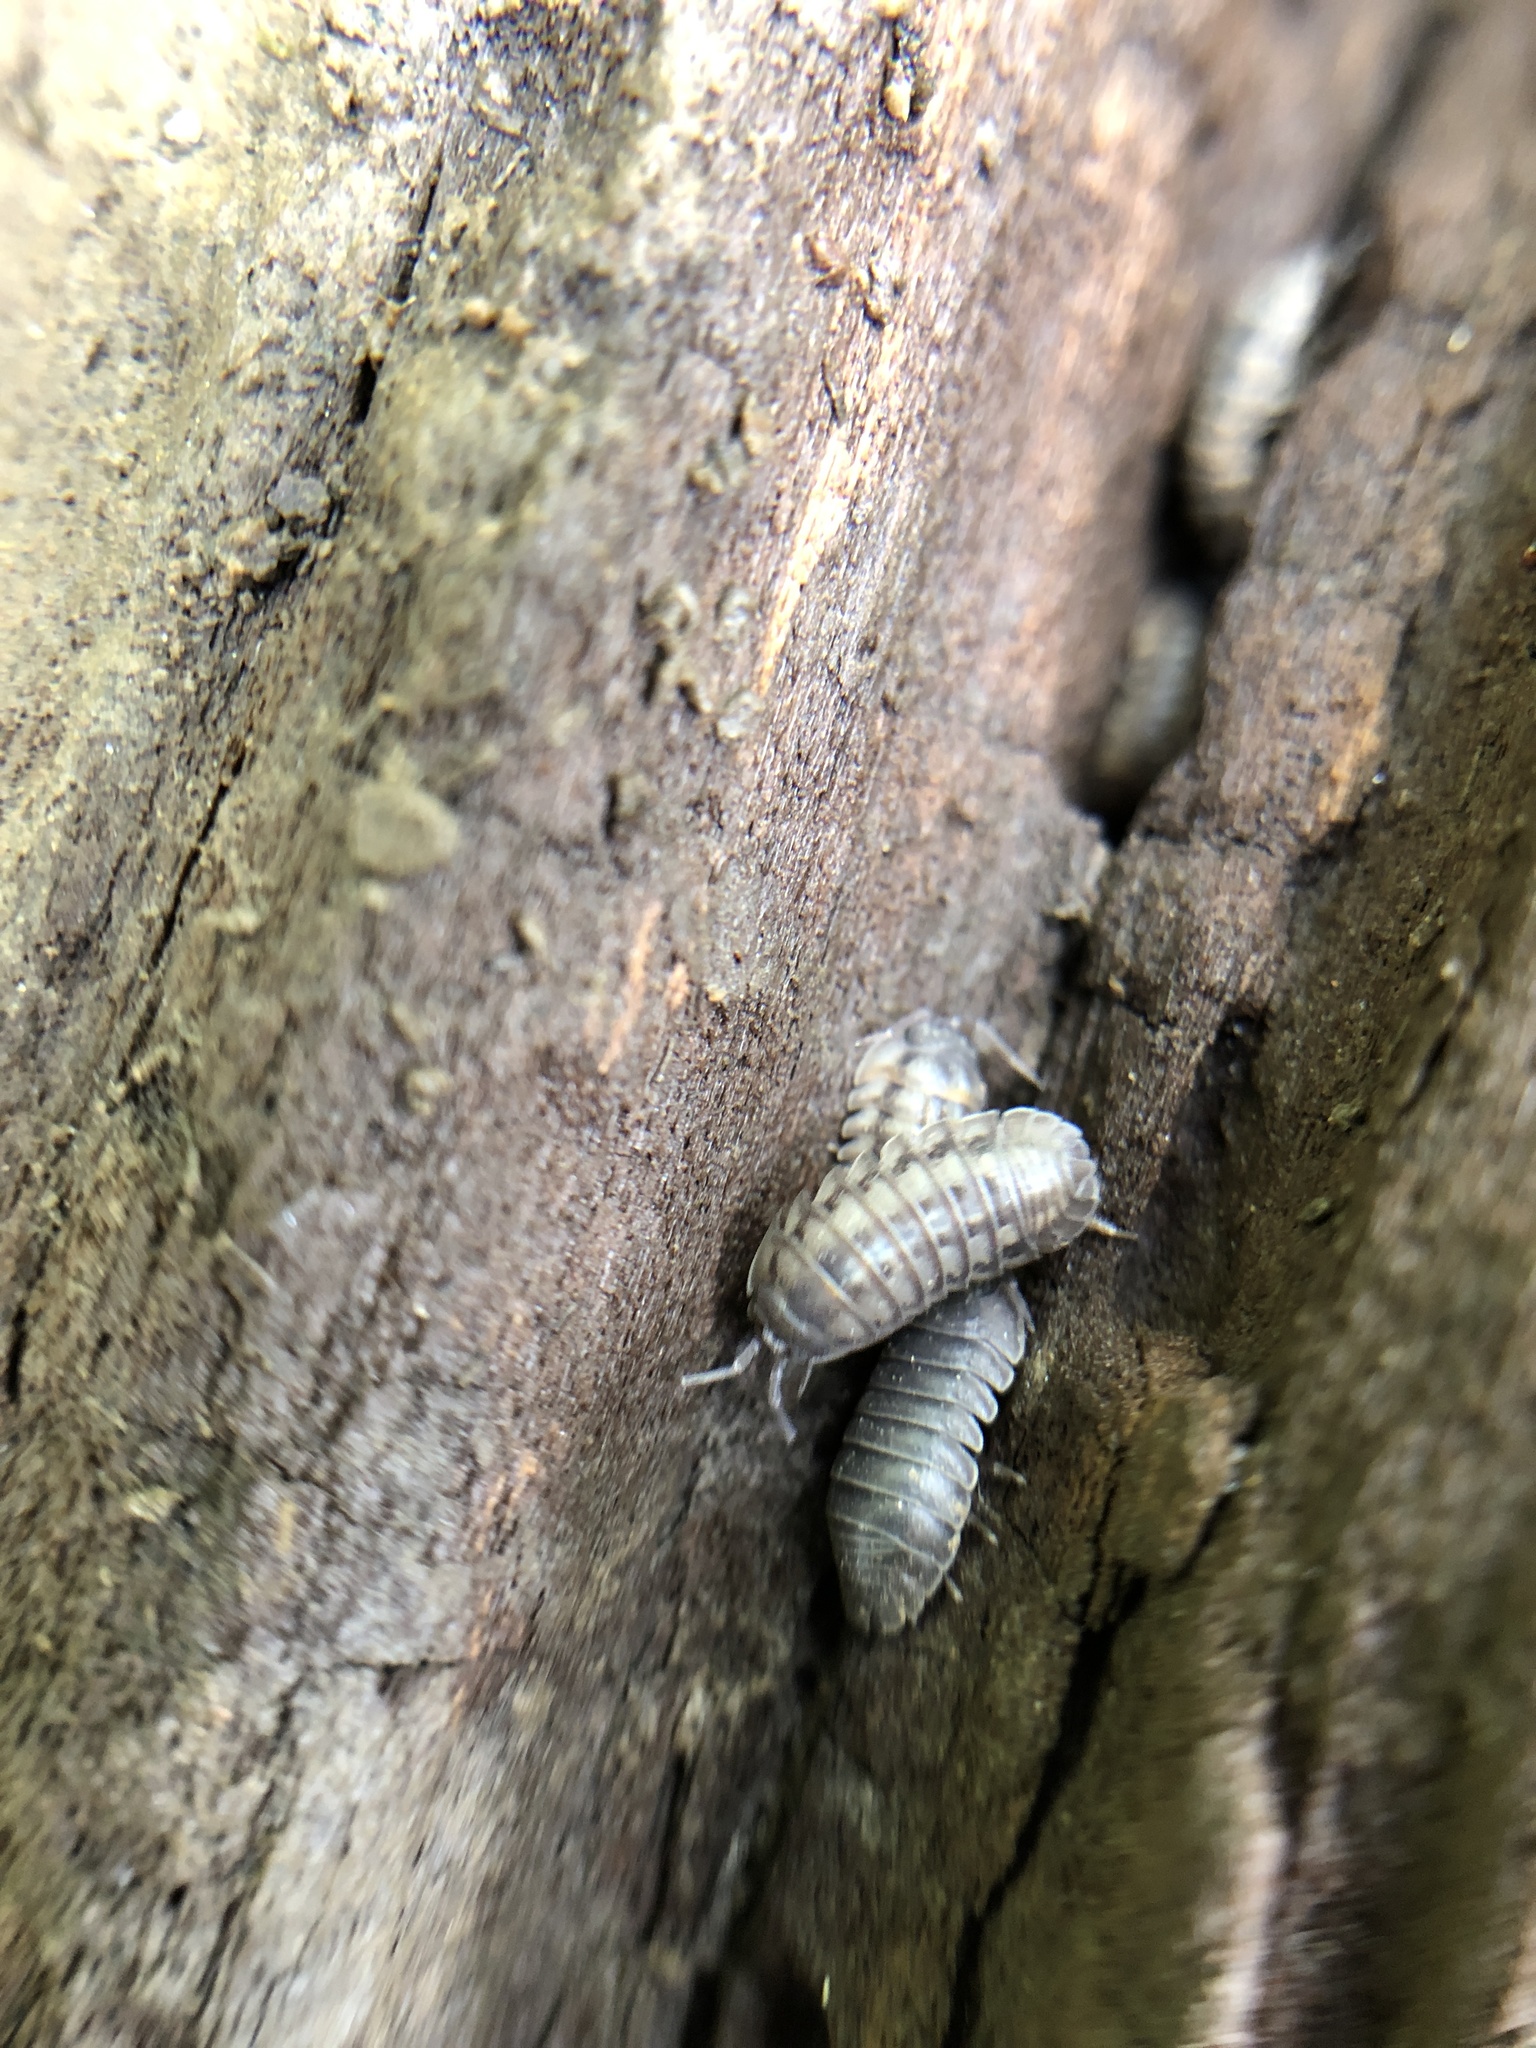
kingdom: Animalia
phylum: Arthropoda
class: Malacostraca
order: Isopoda
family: Armadillidiidae
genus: Armadillidium
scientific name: Armadillidium nasatum
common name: Isopod
